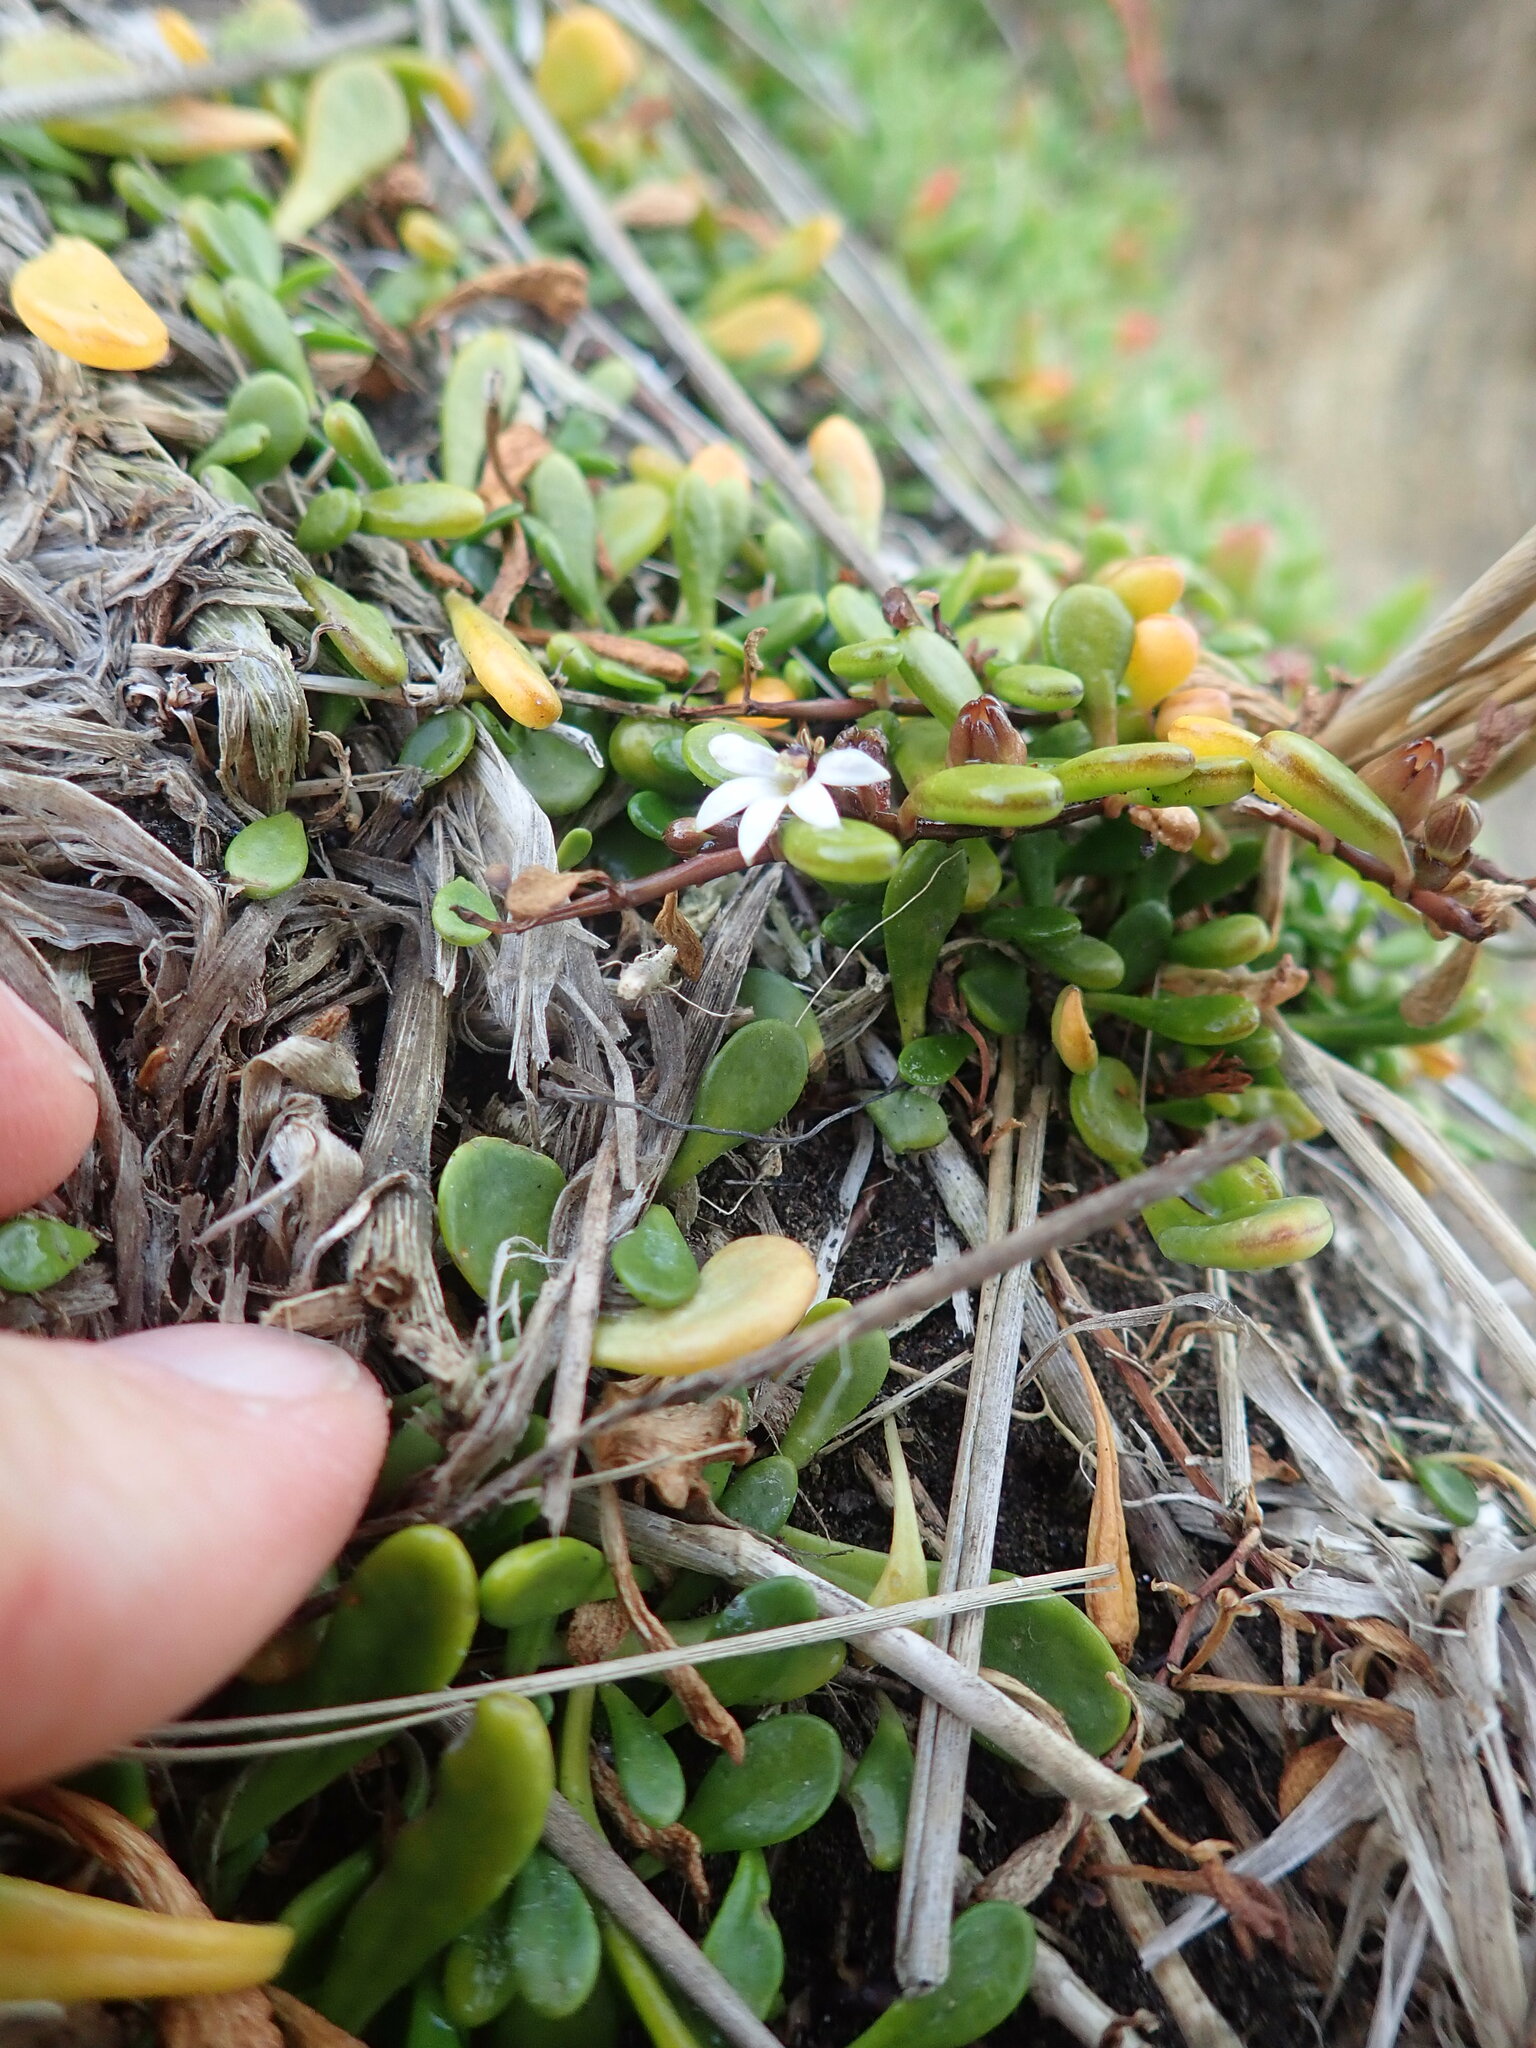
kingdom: Plantae
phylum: Tracheophyta
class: Magnoliopsida
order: Asterales
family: Goodeniaceae
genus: Goodenia
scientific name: Goodenia radicans
